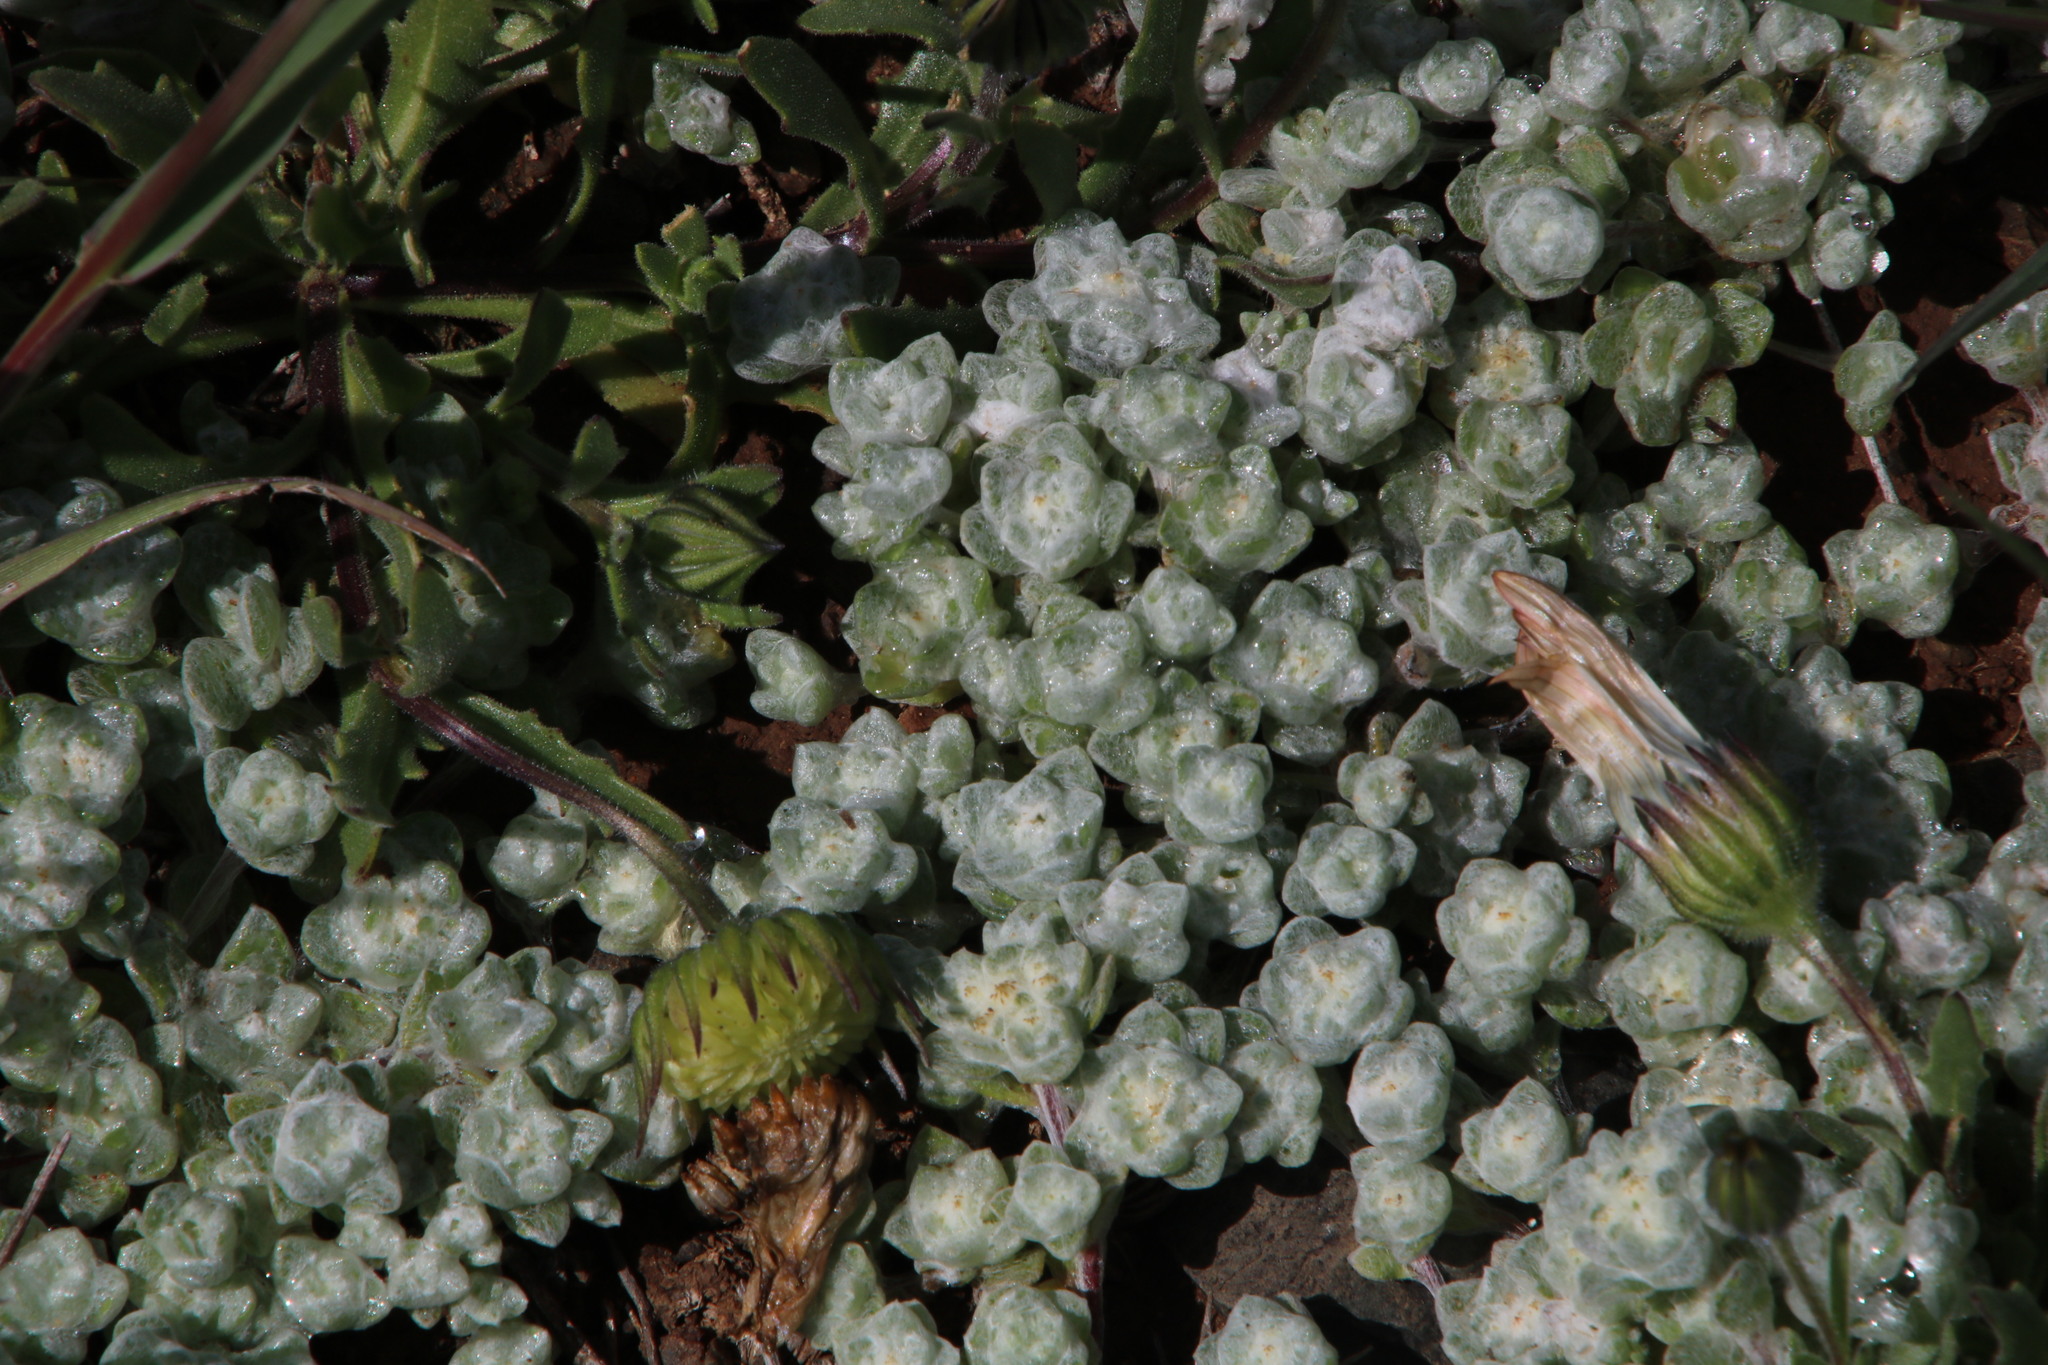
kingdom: Plantae
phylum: Tracheophyta
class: Magnoliopsida
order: Asterales
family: Asteraceae
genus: Lasiopogon
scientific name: Lasiopogon muscoides
